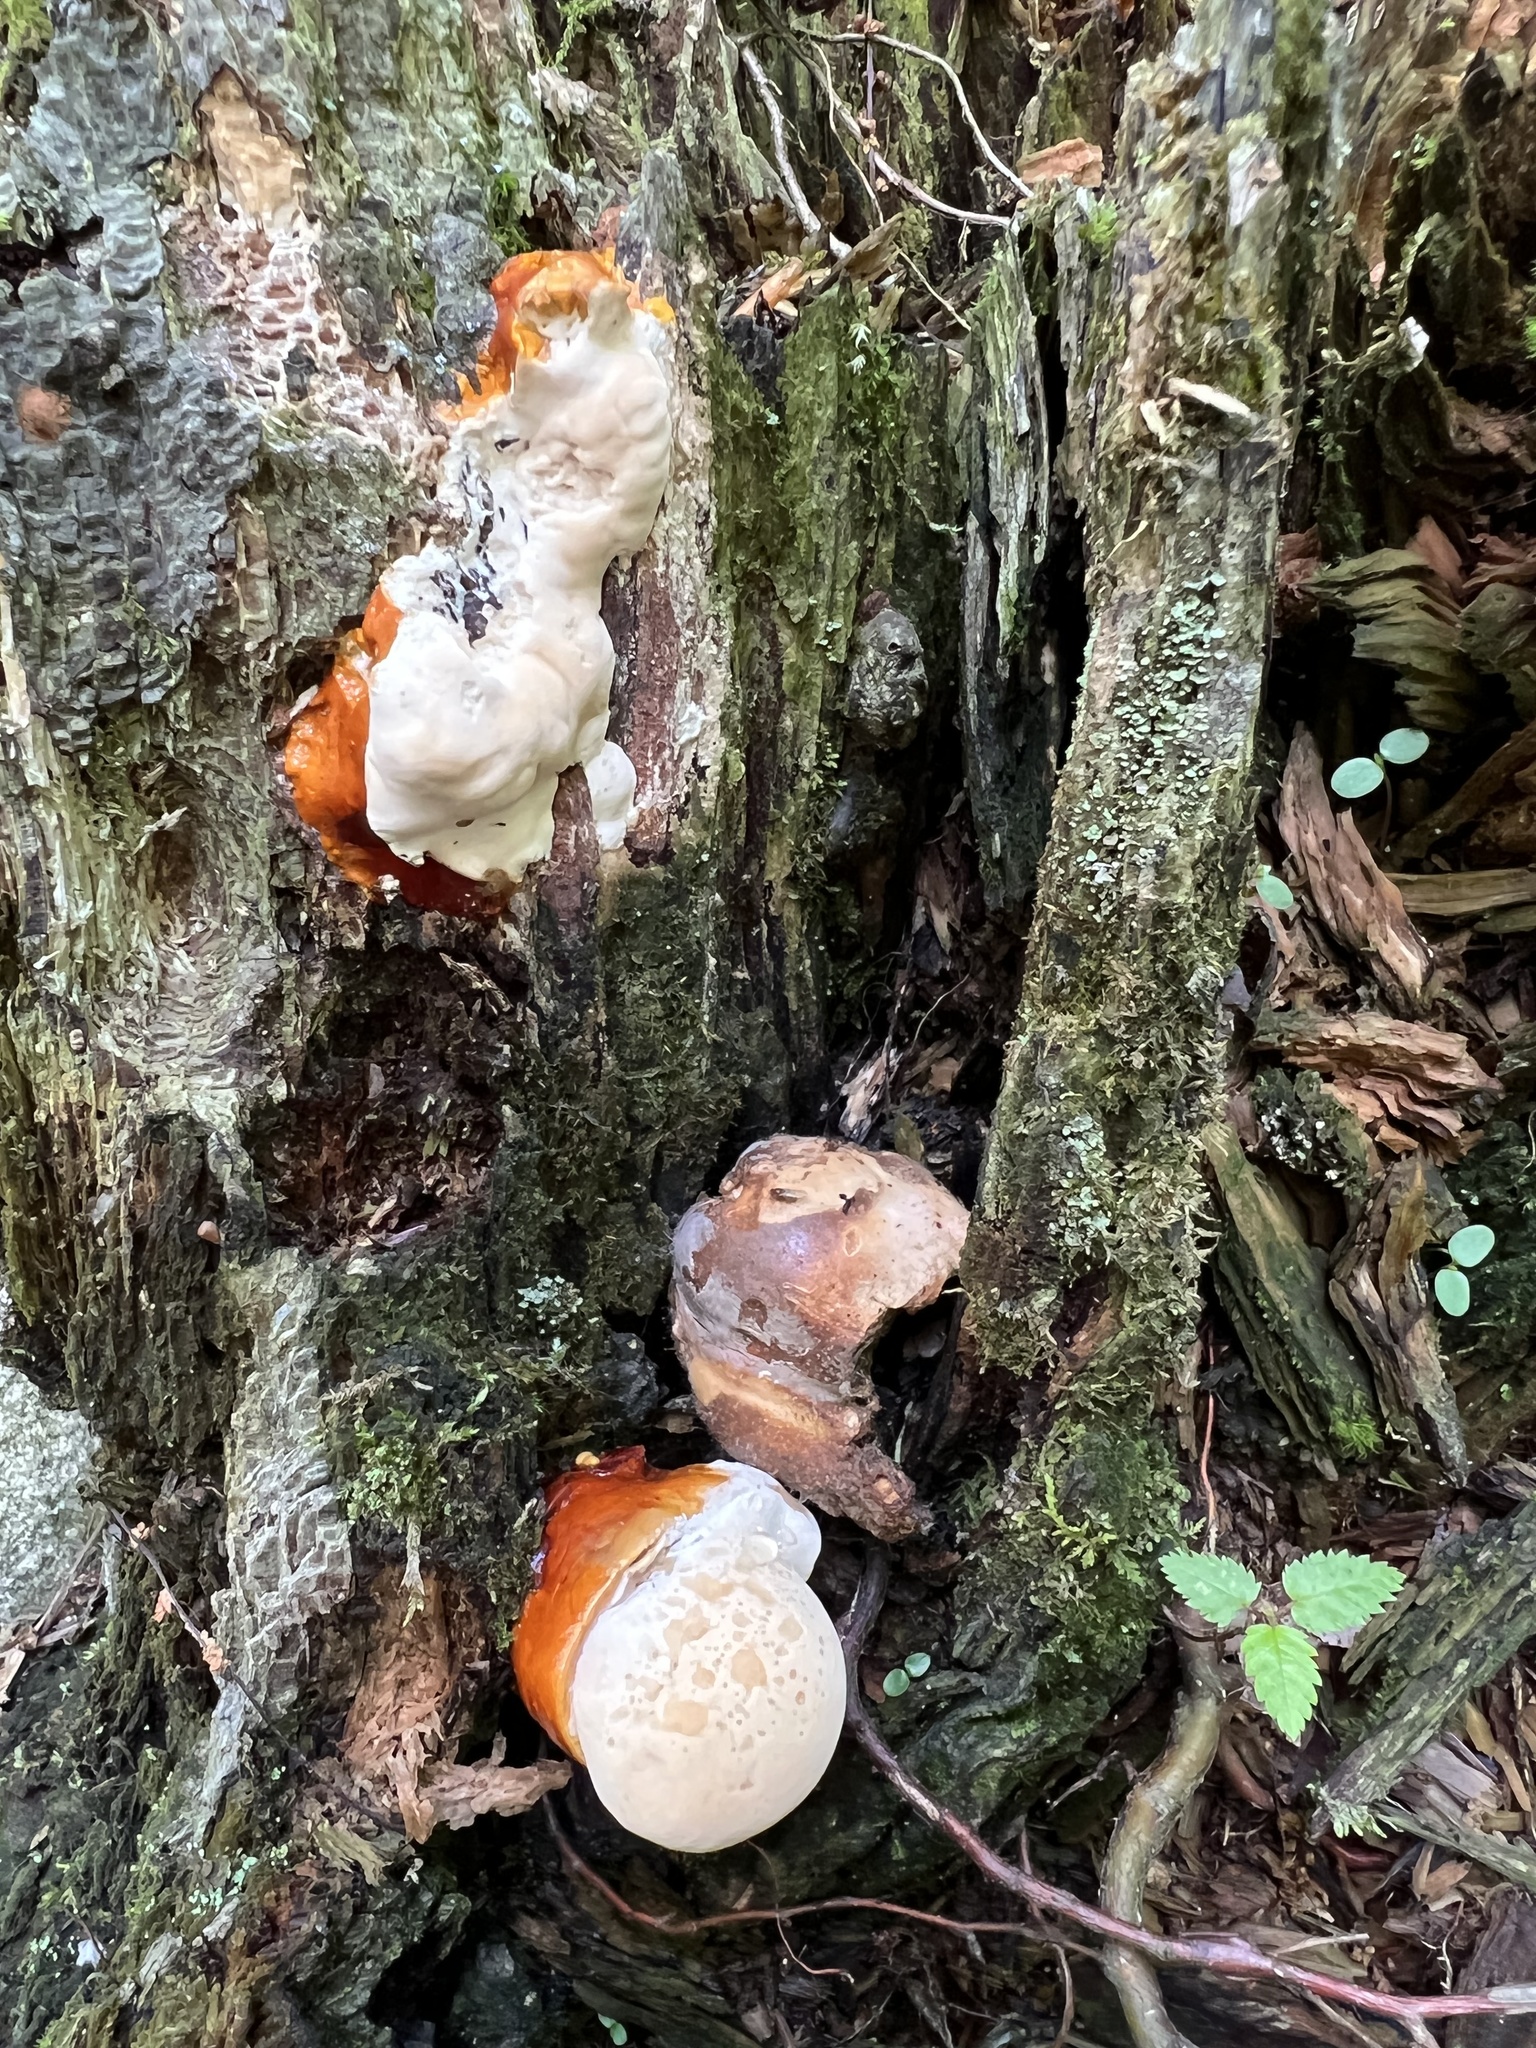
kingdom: Fungi
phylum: Basidiomycota
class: Agaricomycetes
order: Polyporales
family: Polyporaceae
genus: Ganoderma
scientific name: Ganoderma tsugae
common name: Hemlock varnish shelf
